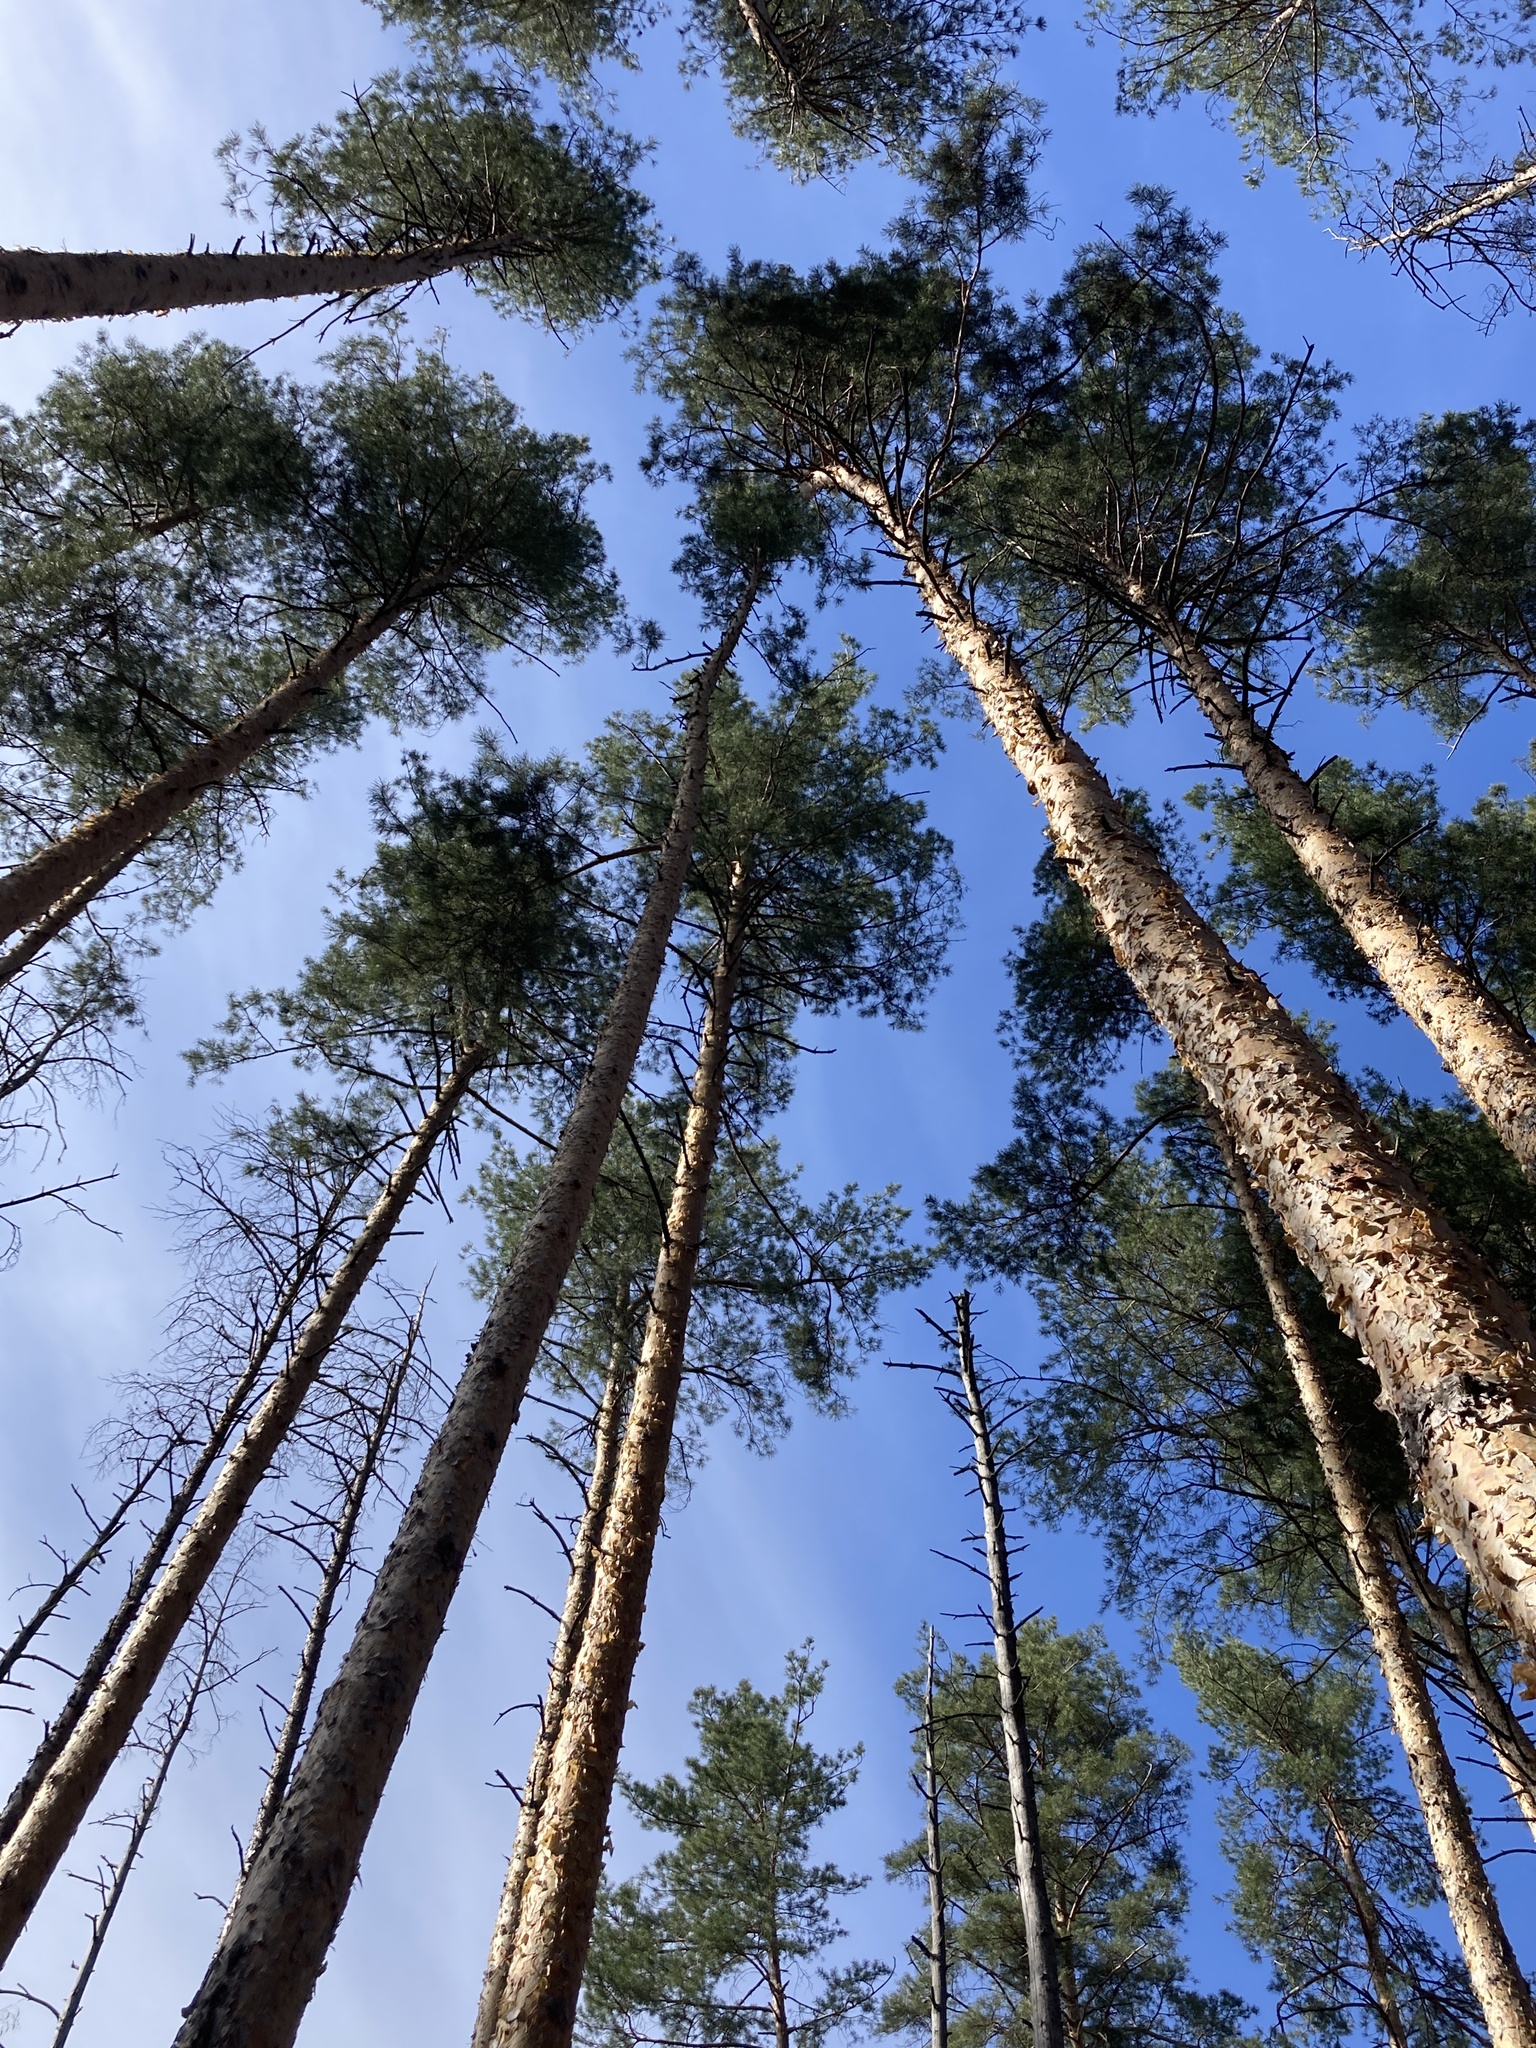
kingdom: Plantae
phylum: Tracheophyta
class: Pinopsida
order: Pinales
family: Pinaceae
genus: Pinus
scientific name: Pinus sylvestris
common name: Scots pine
